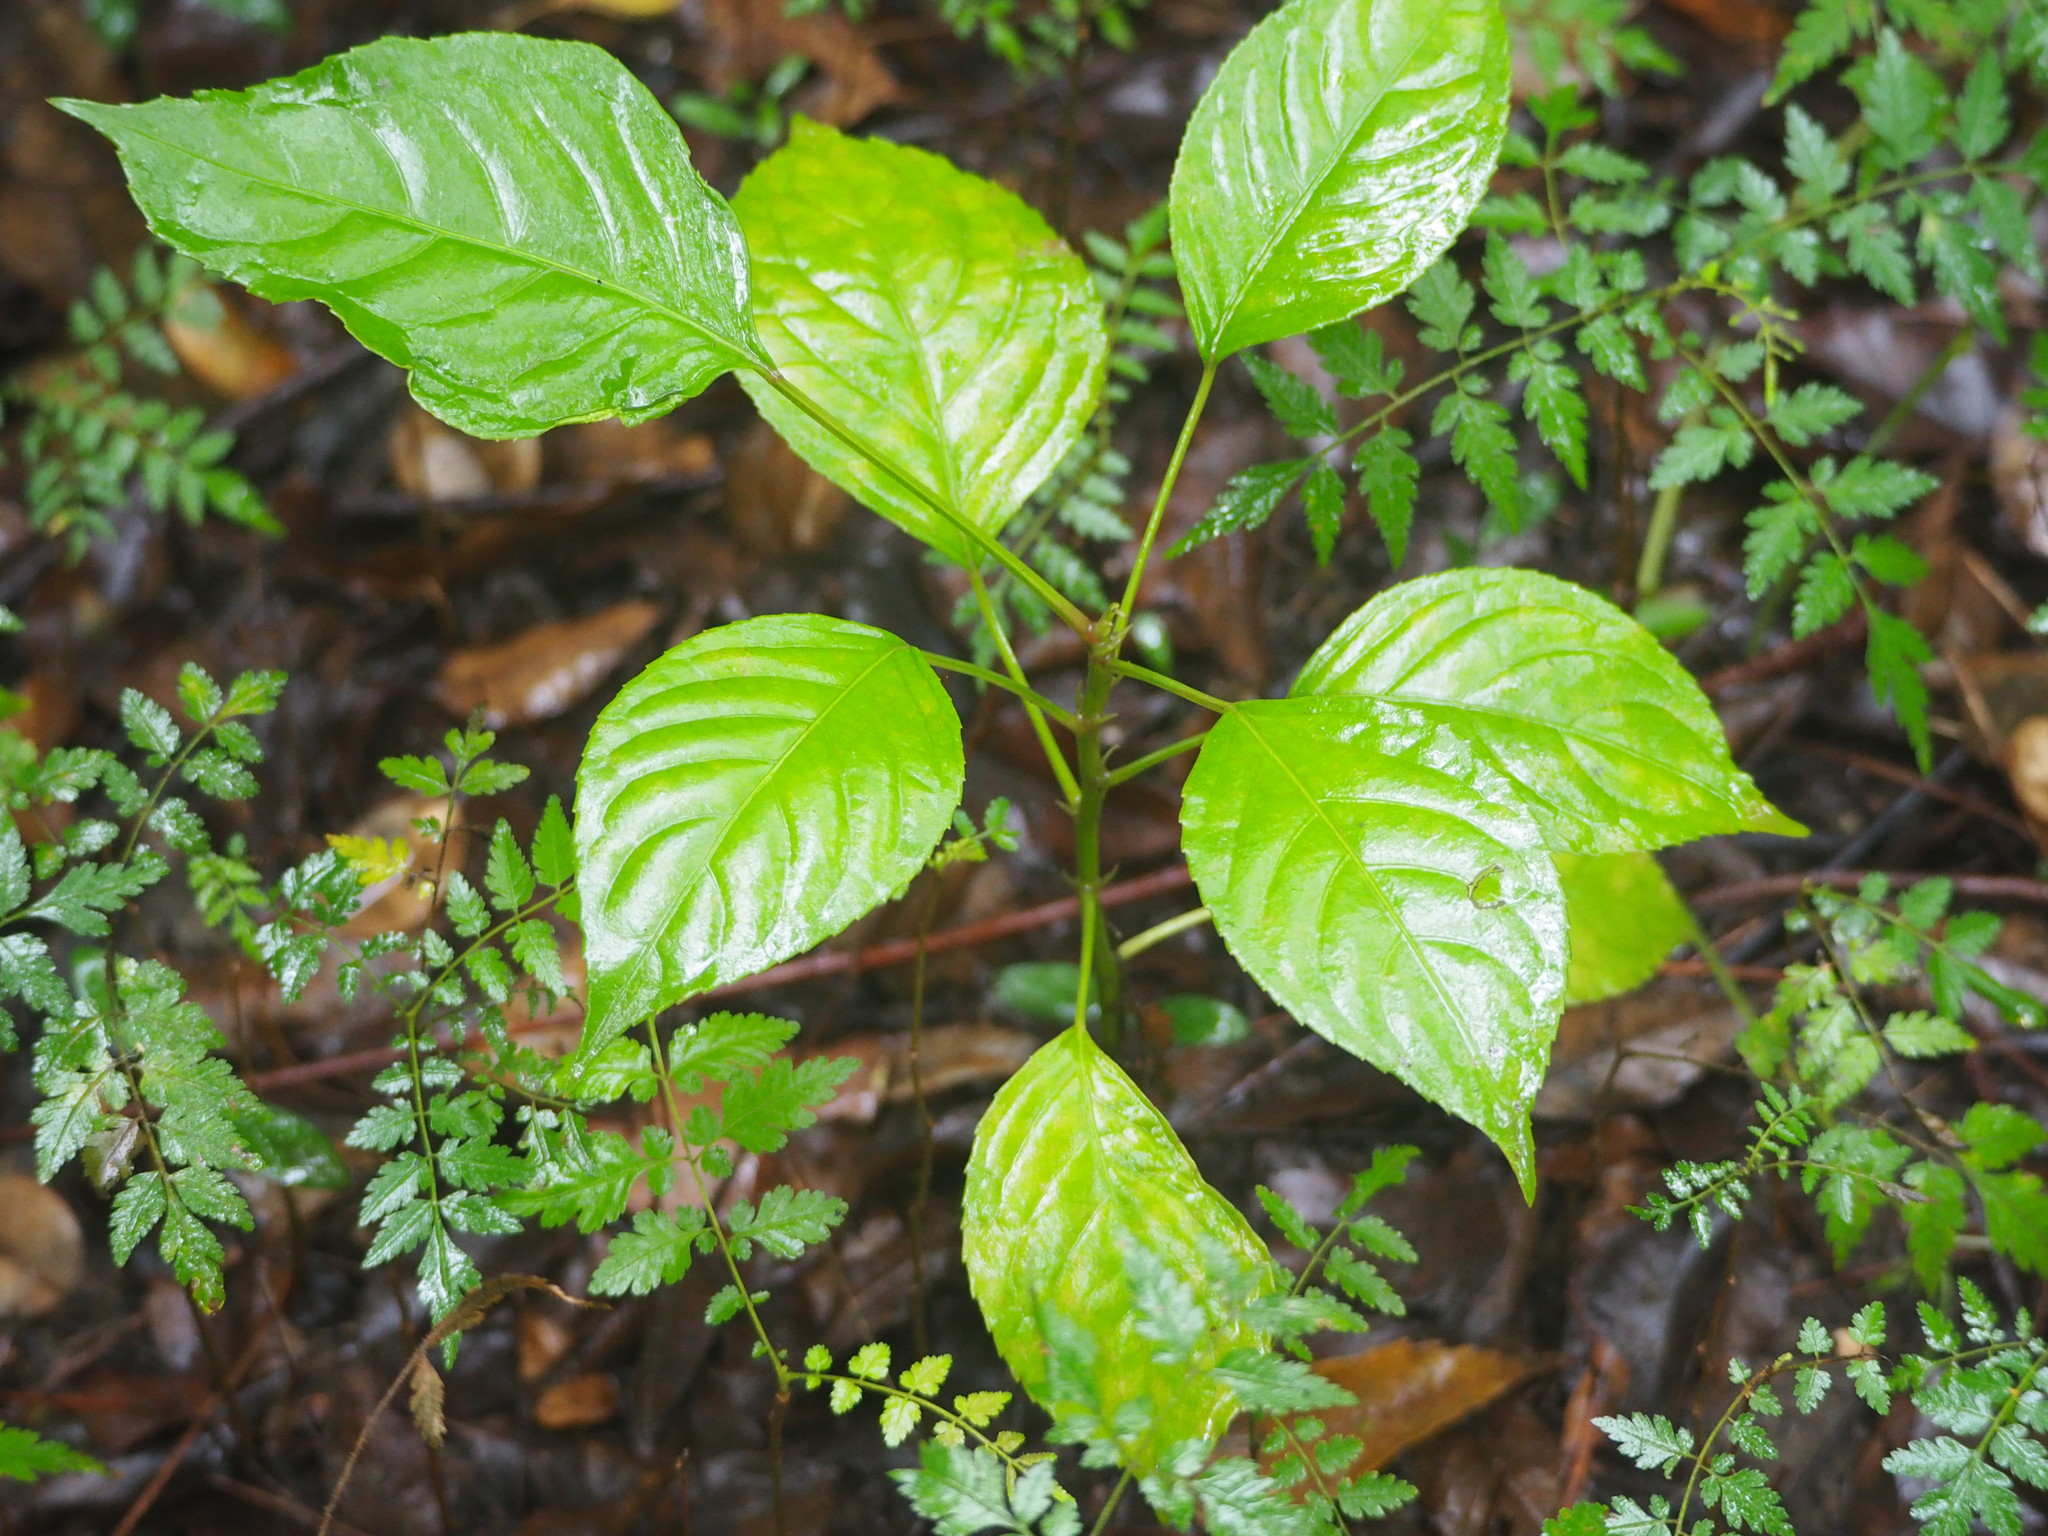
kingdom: Plantae
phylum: Tracheophyta
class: Magnoliopsida
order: Malpighiales
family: Phyllanthaceae
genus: Bischofia
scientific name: Bischofia javanica
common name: Javanese bishopwood
